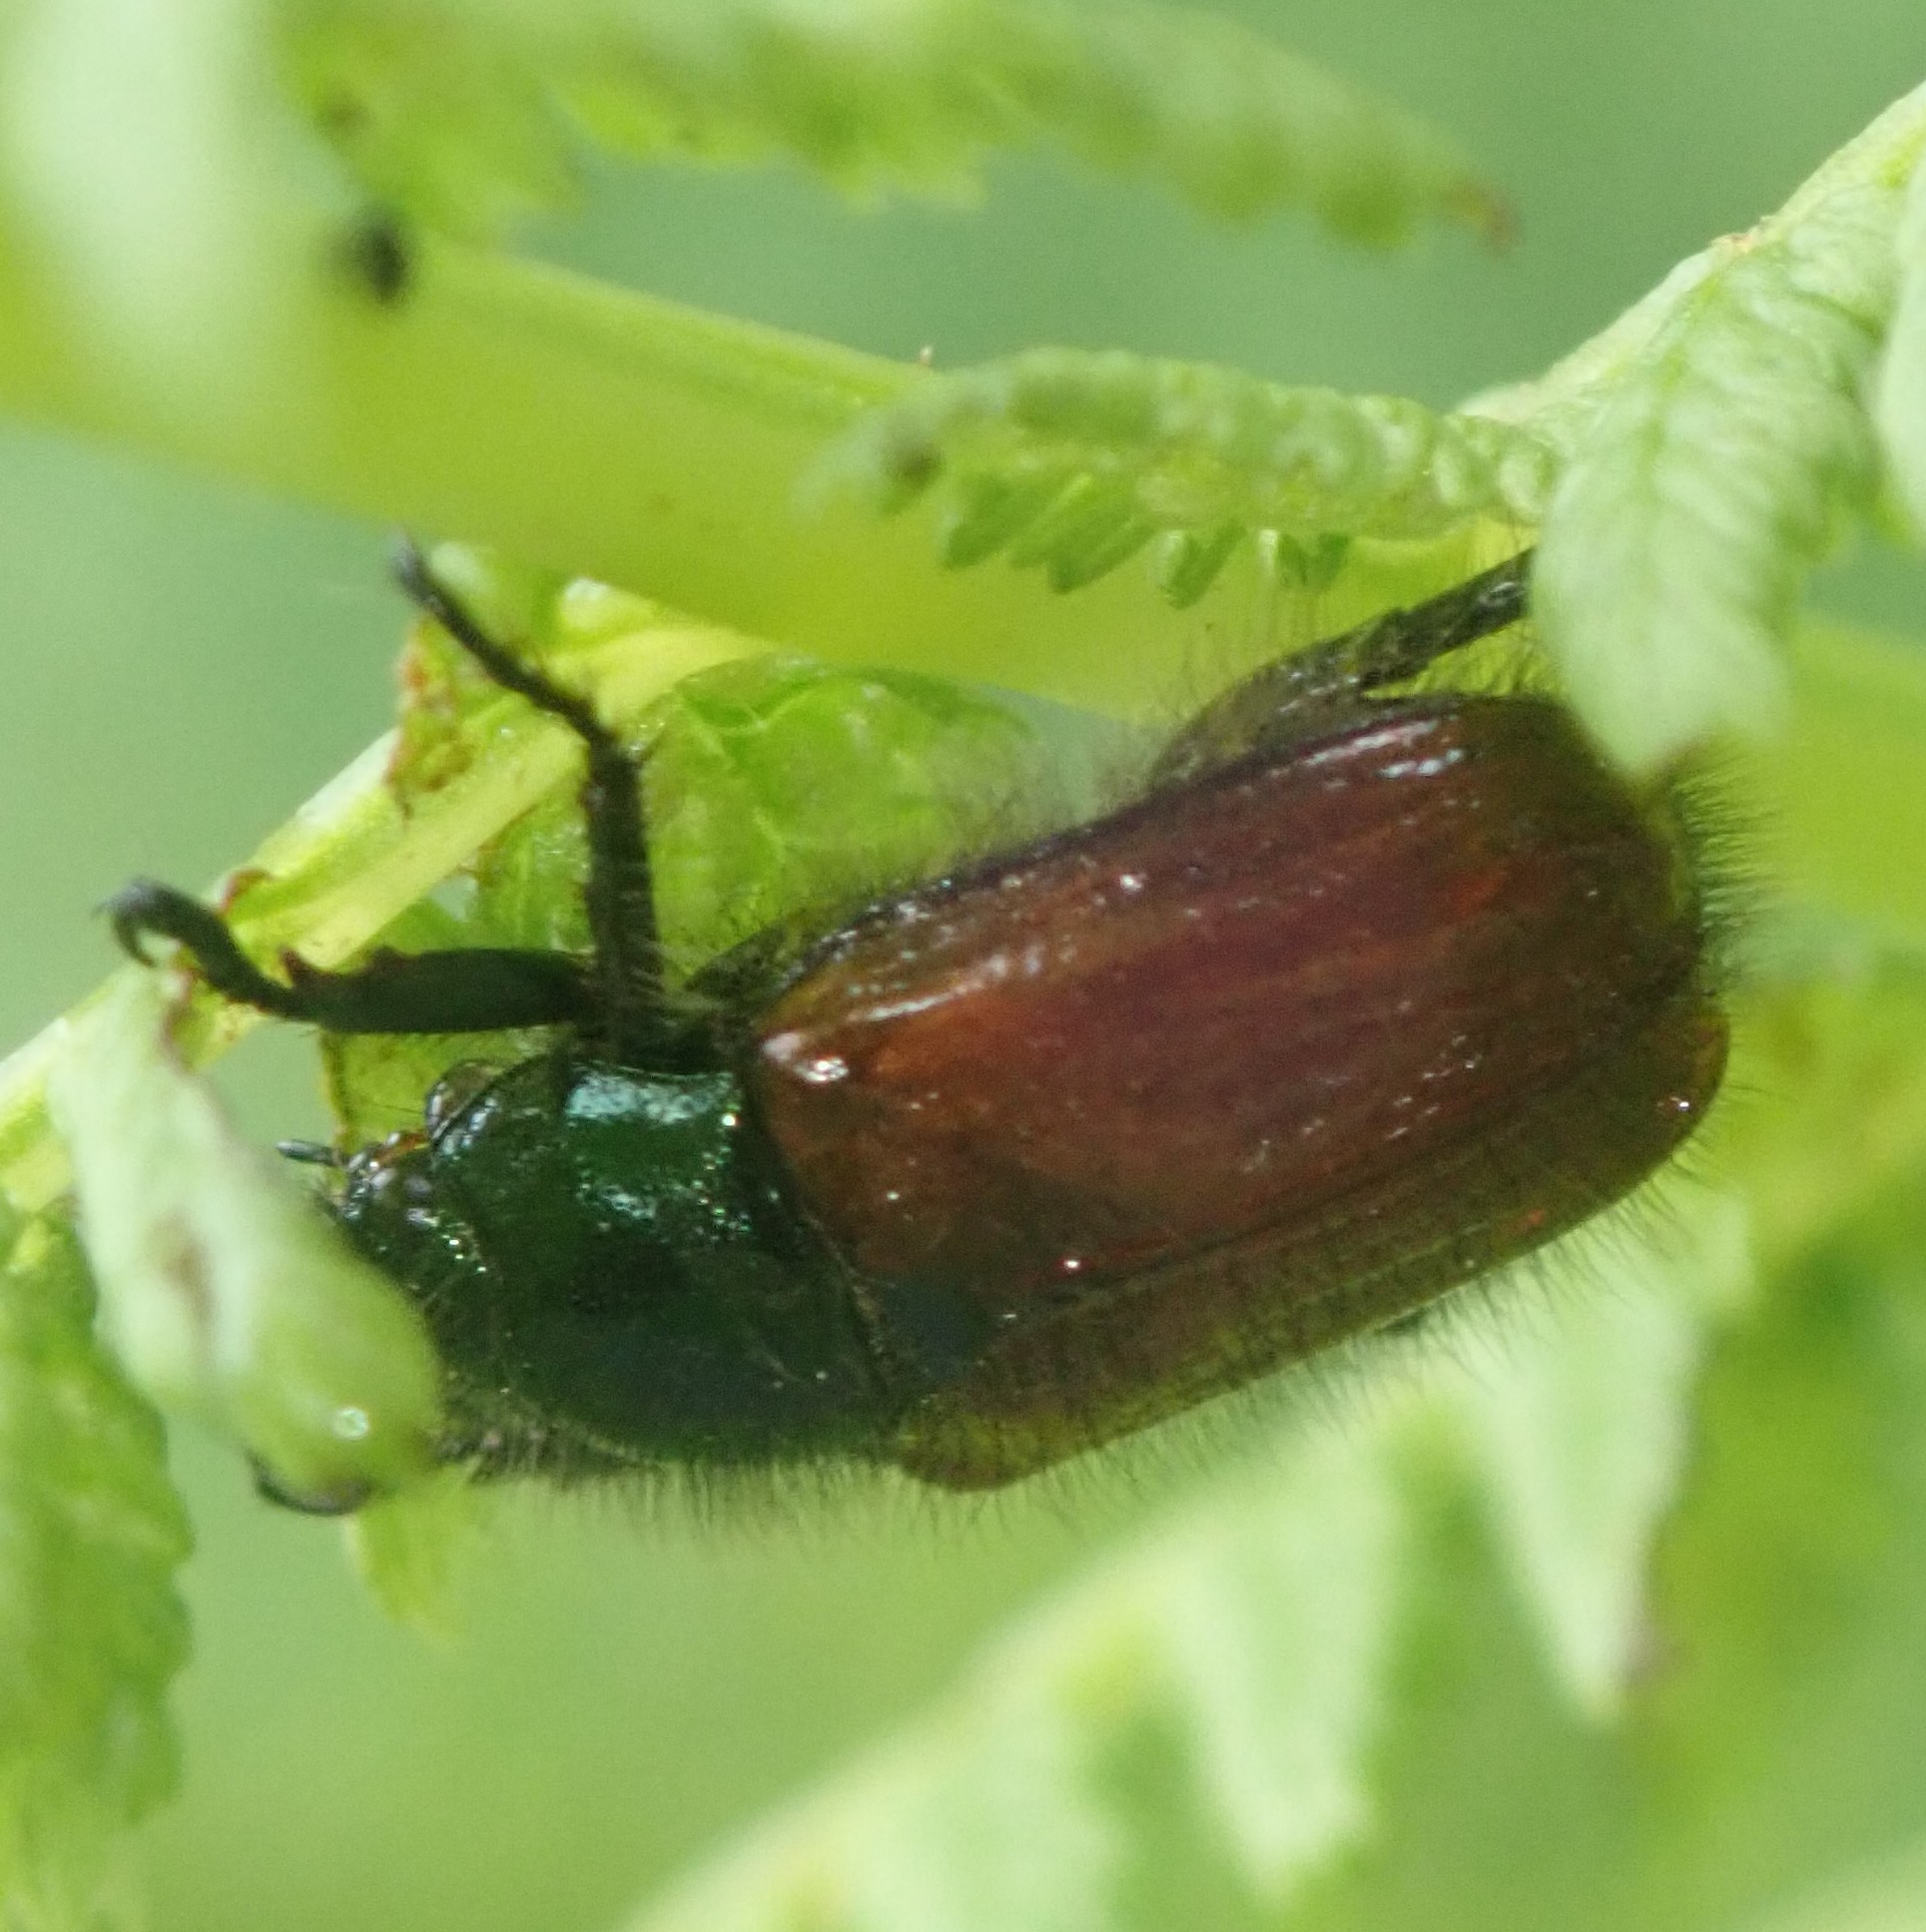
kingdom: Animalia
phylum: Arthropoda
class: Insecta
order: Coleoptera
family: Scarabaeidae
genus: Phyllopertha
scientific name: Phyllopertha horticola
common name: Garden chafer
